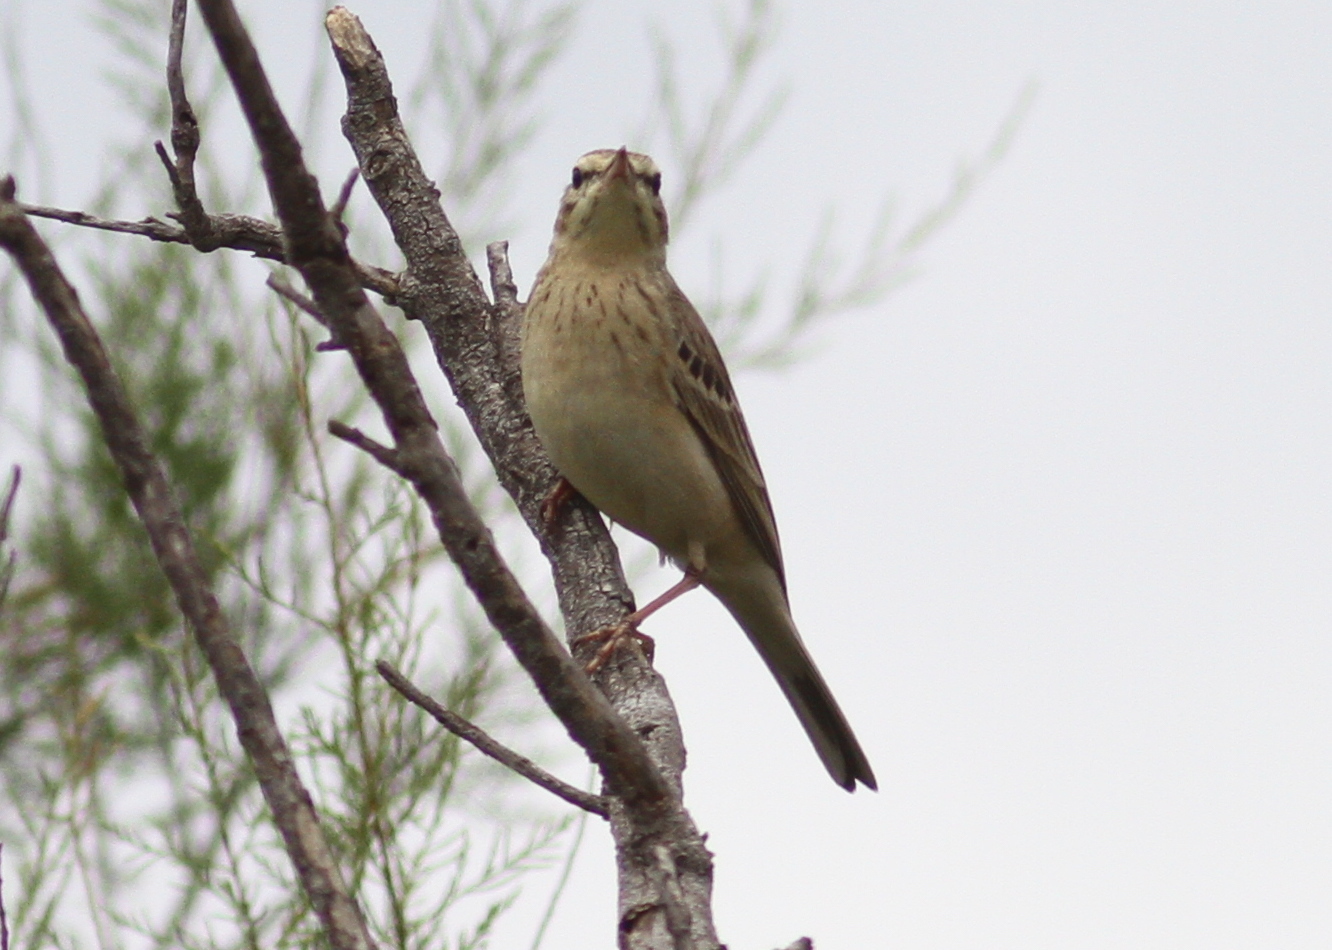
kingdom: Animalia
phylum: Chordata
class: Aves
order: Passeriformes
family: Motacillidae
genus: Anthus
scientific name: Anthus campestris
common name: Tawny pipit
